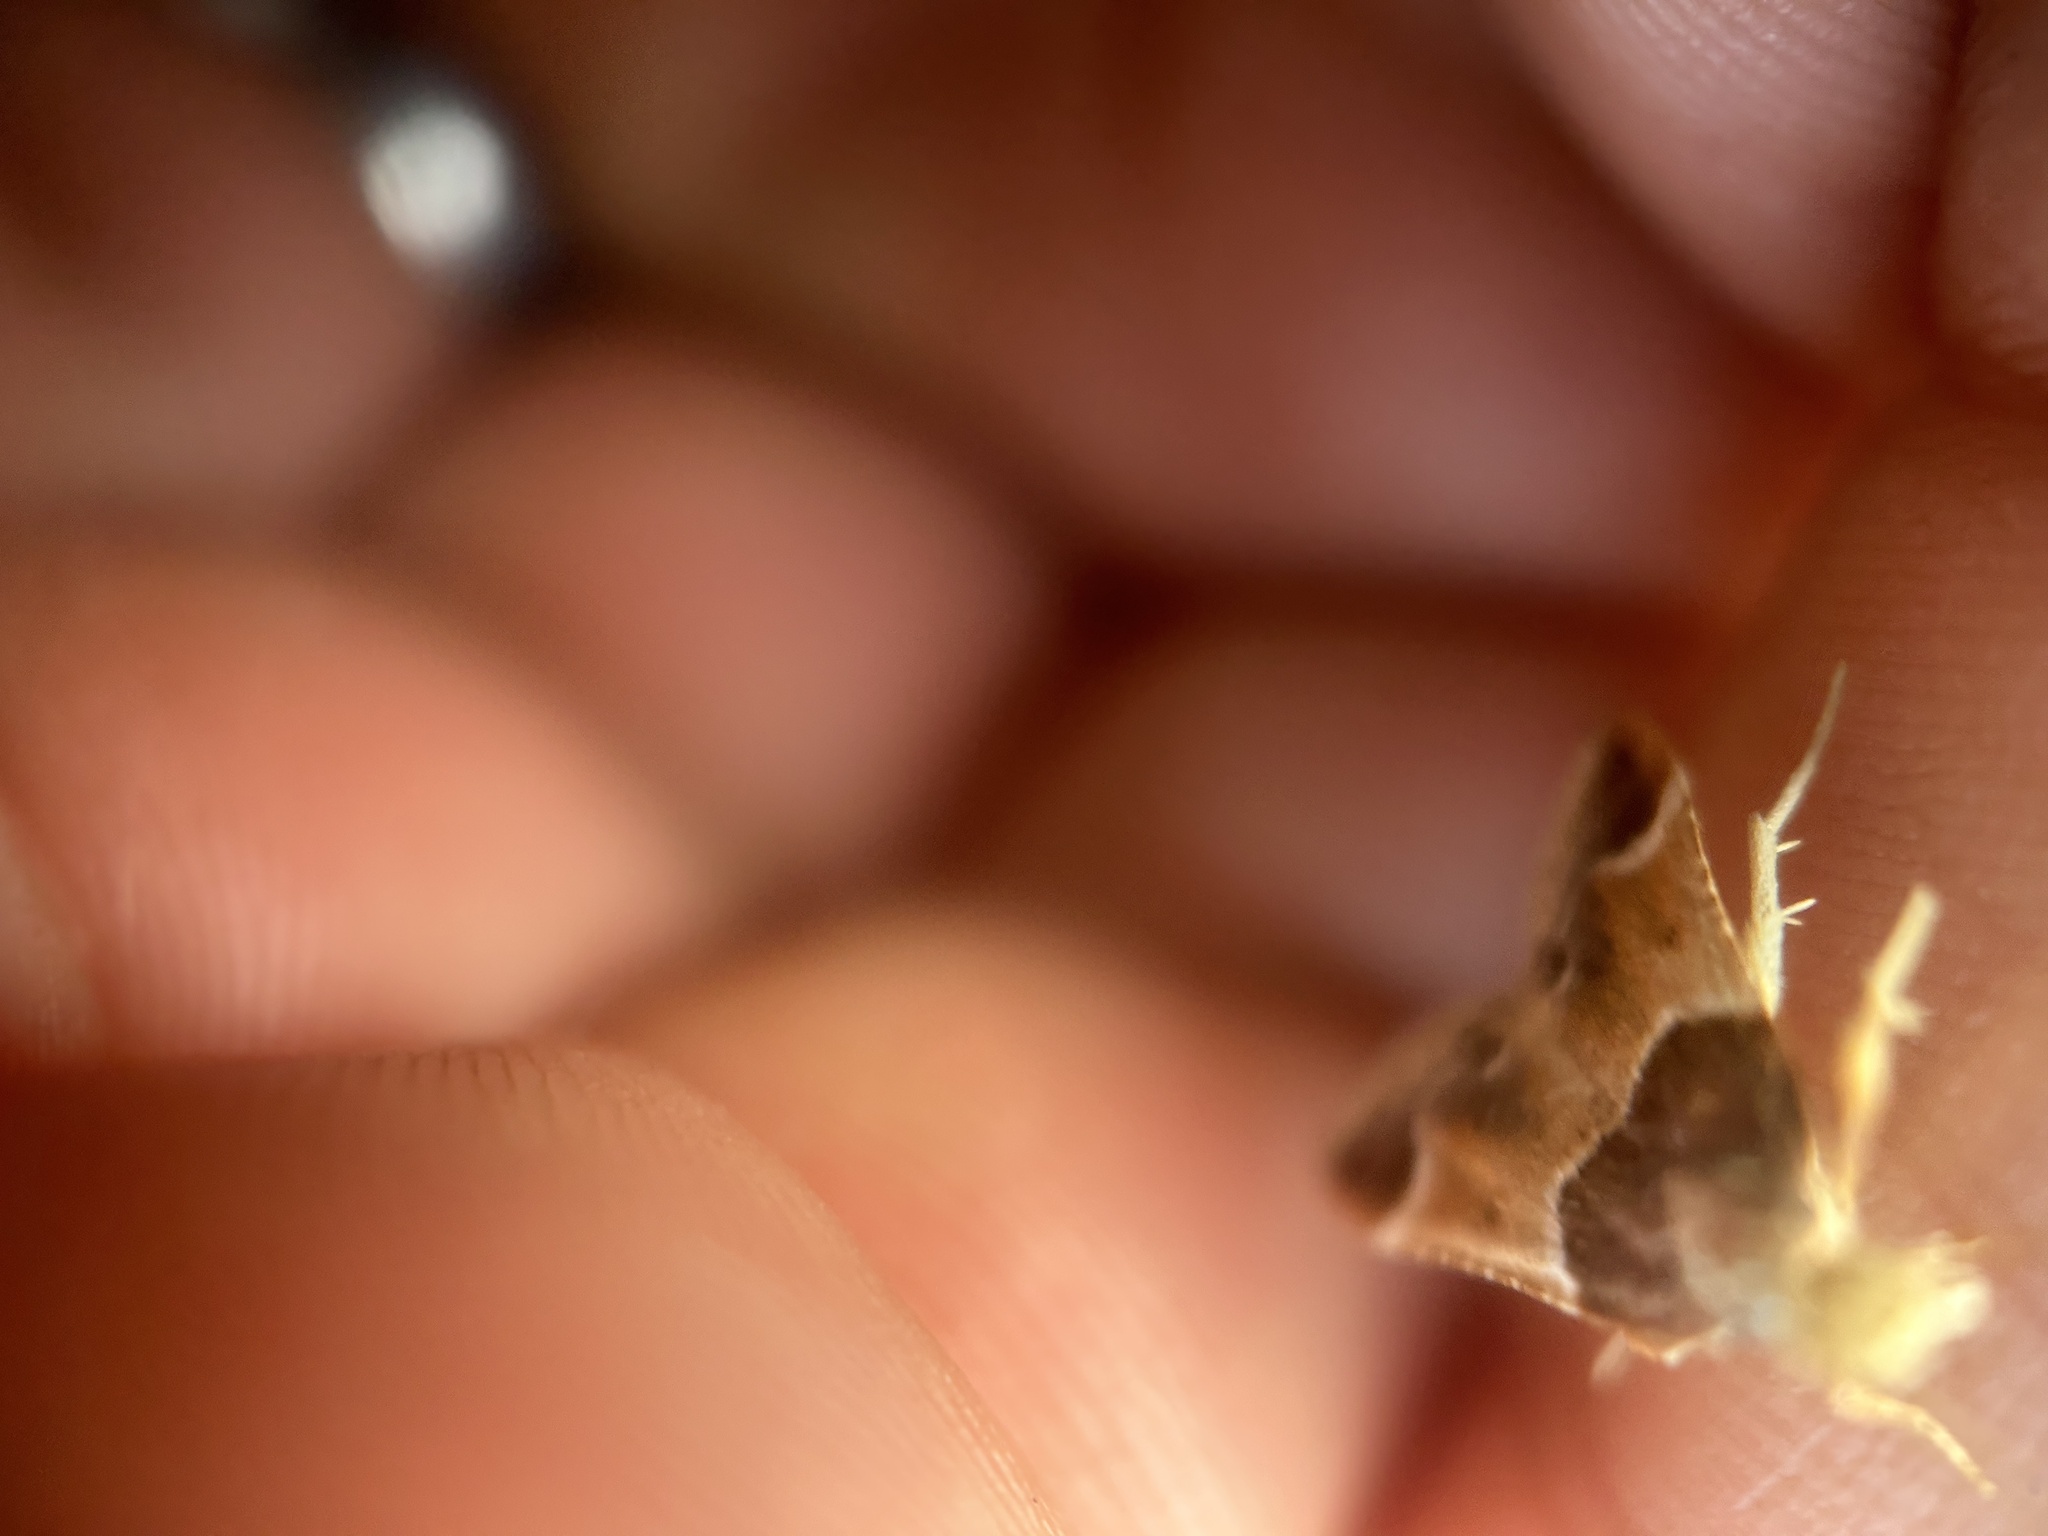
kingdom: Animalia
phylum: Arthropoda
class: Insecta
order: Lepidoptera
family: Pyralidae
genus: Pyralis
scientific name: Pyralis farinalis
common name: Meal moth
